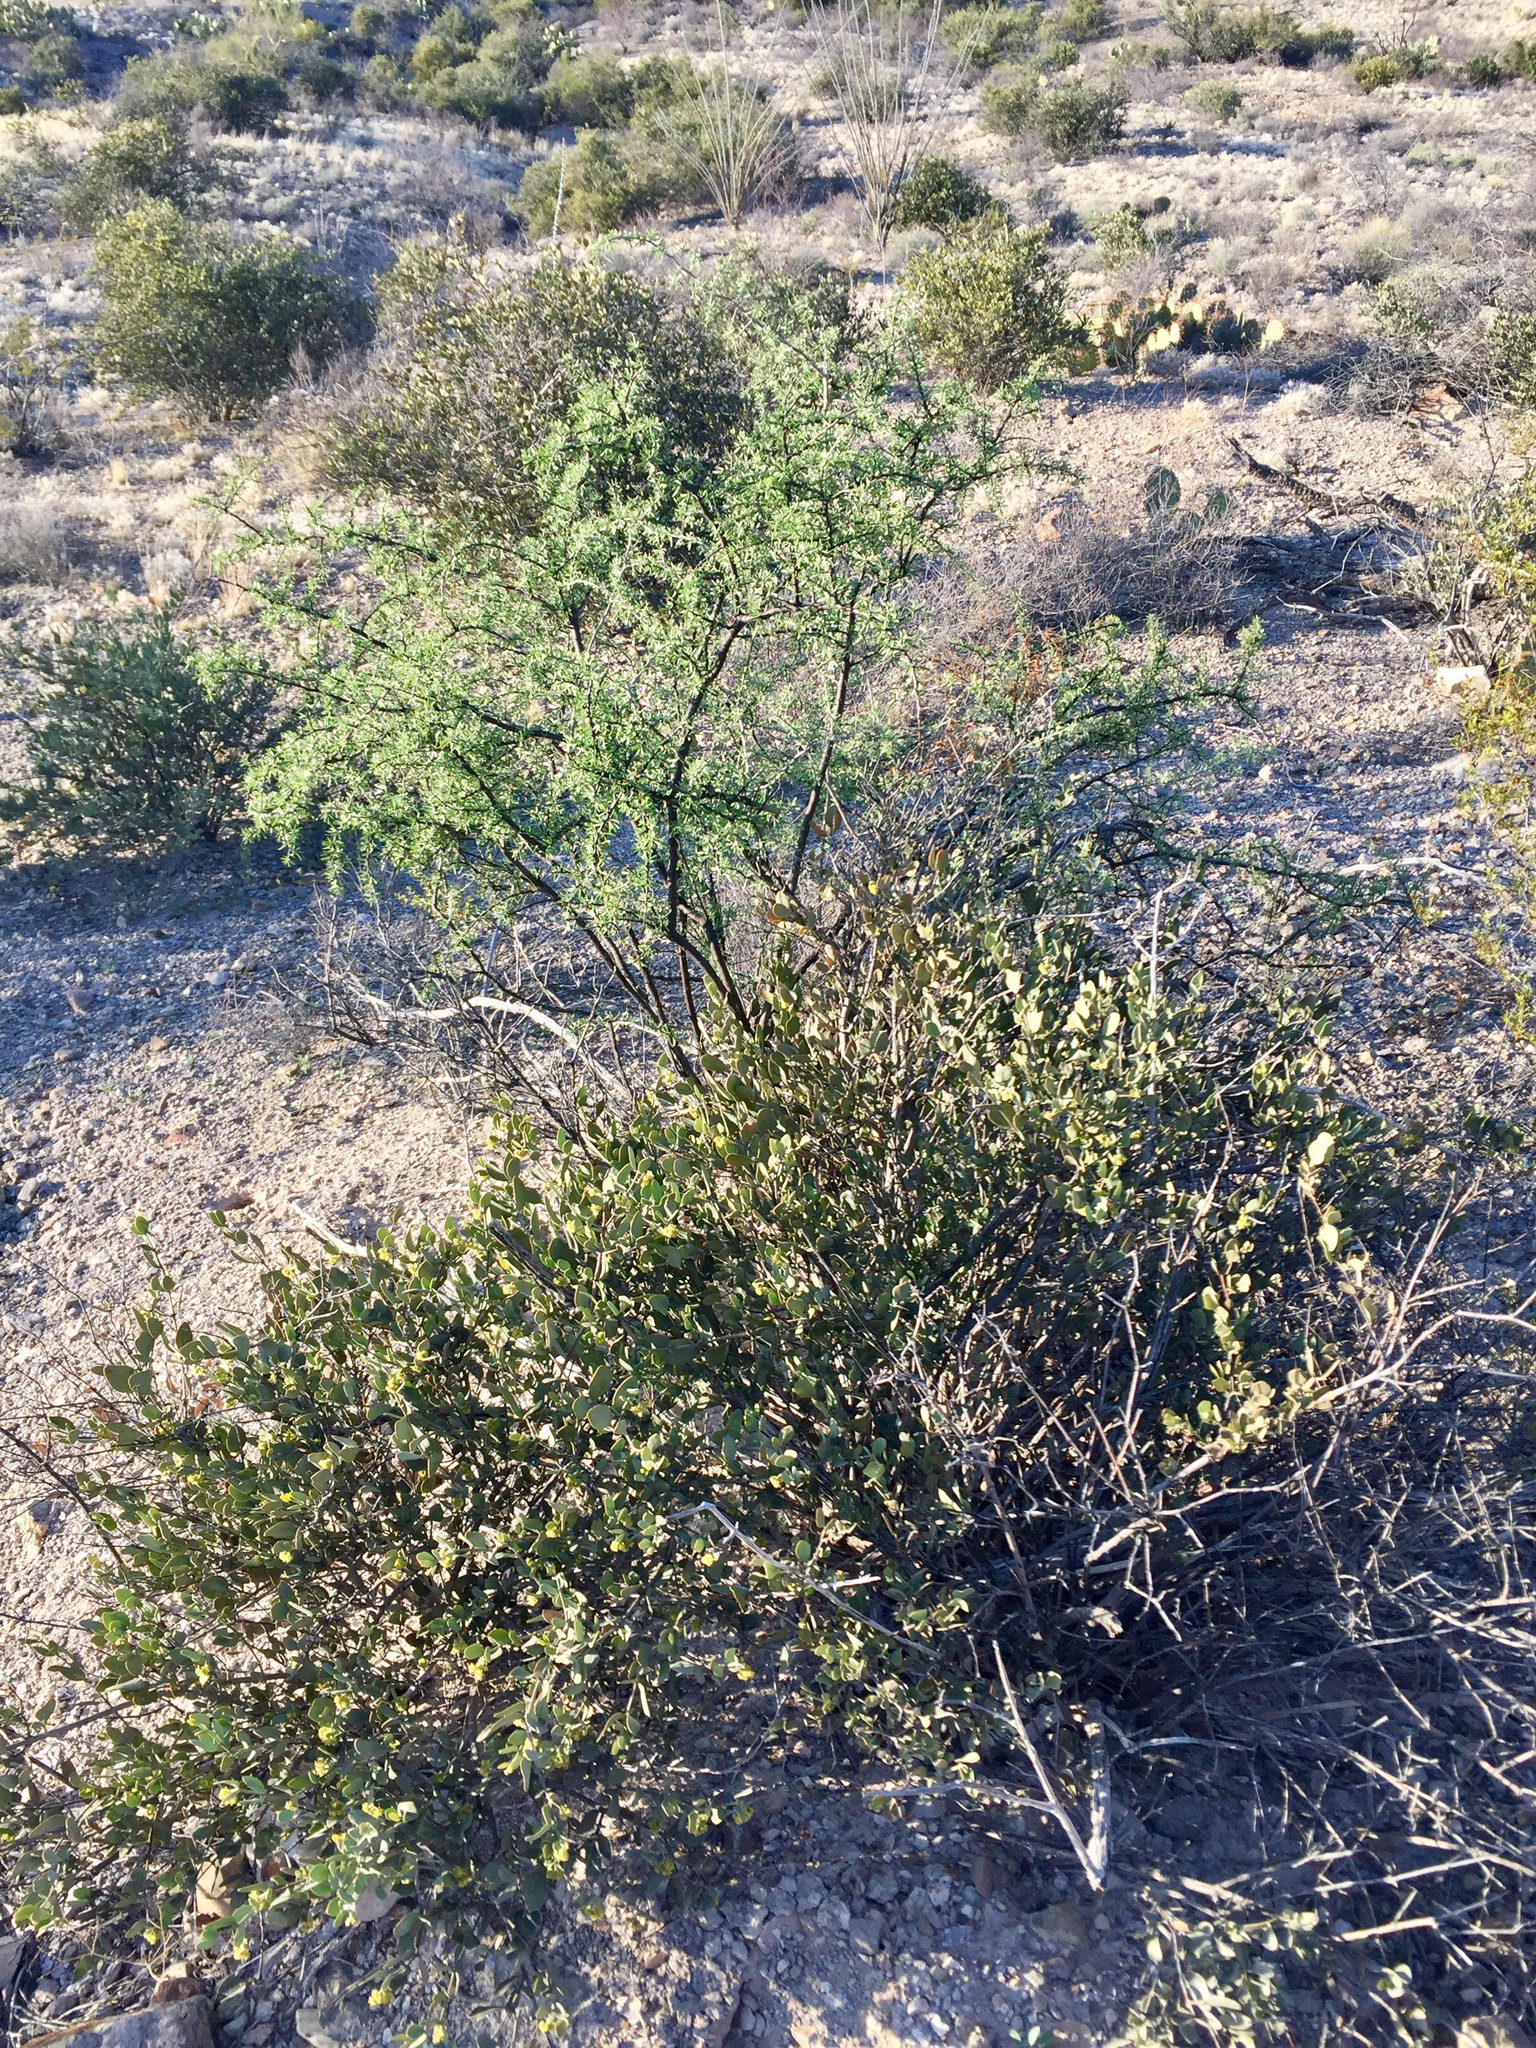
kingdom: Plantae
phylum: Tracheophyta
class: Magnoliopsida
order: Caryophyllales
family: Simmondsiaceae
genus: Simmondsia
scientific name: Simmondsia chinensis
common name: Jojoba
